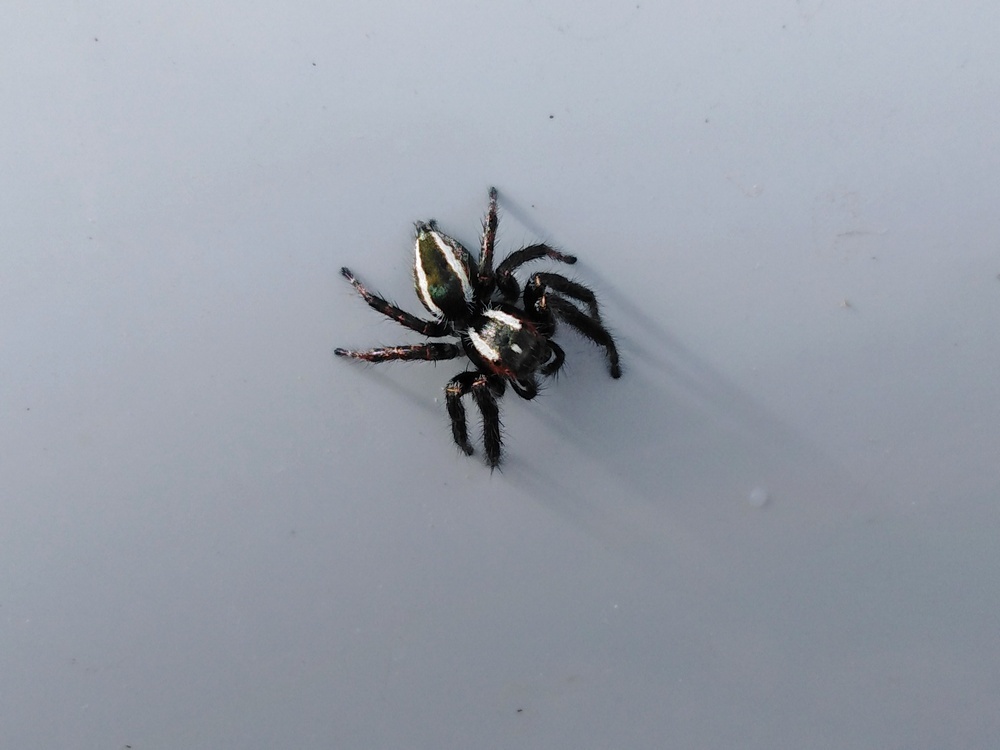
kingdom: Animalia
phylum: Arthropoda
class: Arachnida
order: Araneae
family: Salticidae
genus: Carrhotus
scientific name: Carrhotus viduus
